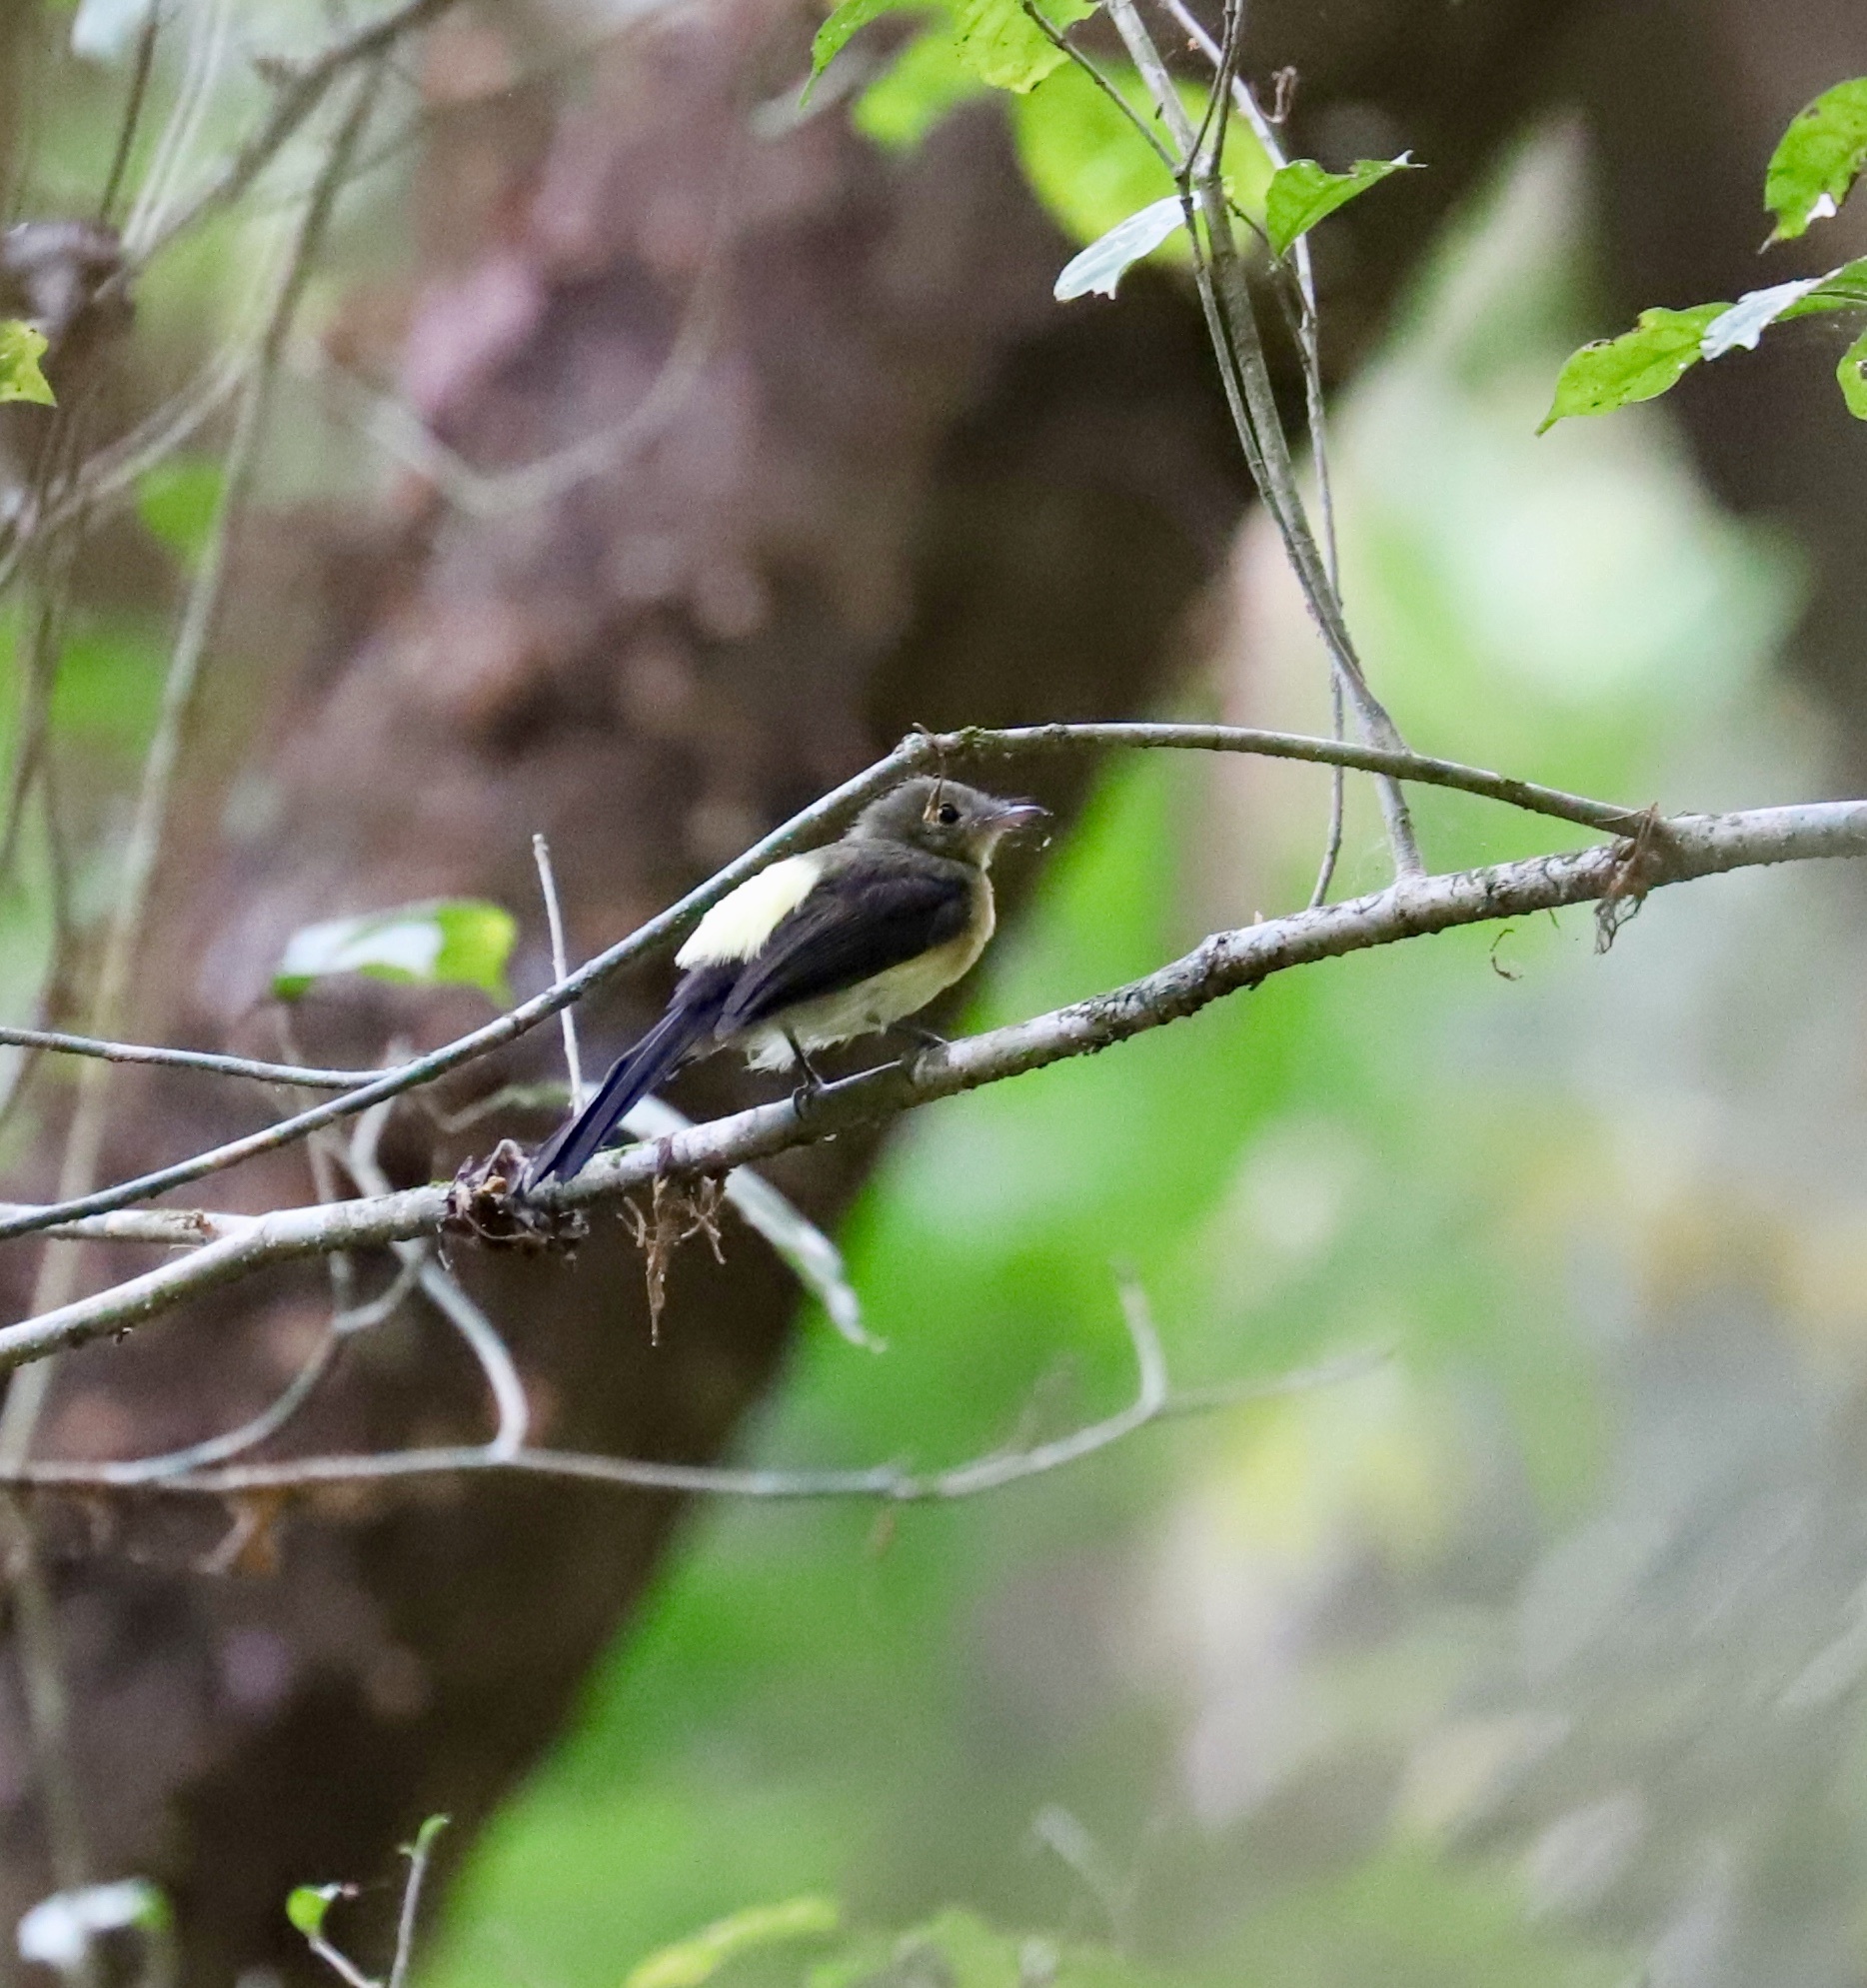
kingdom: Animalia
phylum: Chordata
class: Aves
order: Passeriformes
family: Tyrannidae
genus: Myiobius
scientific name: Myiobius atricaudus
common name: Black-tailed flycatcher
